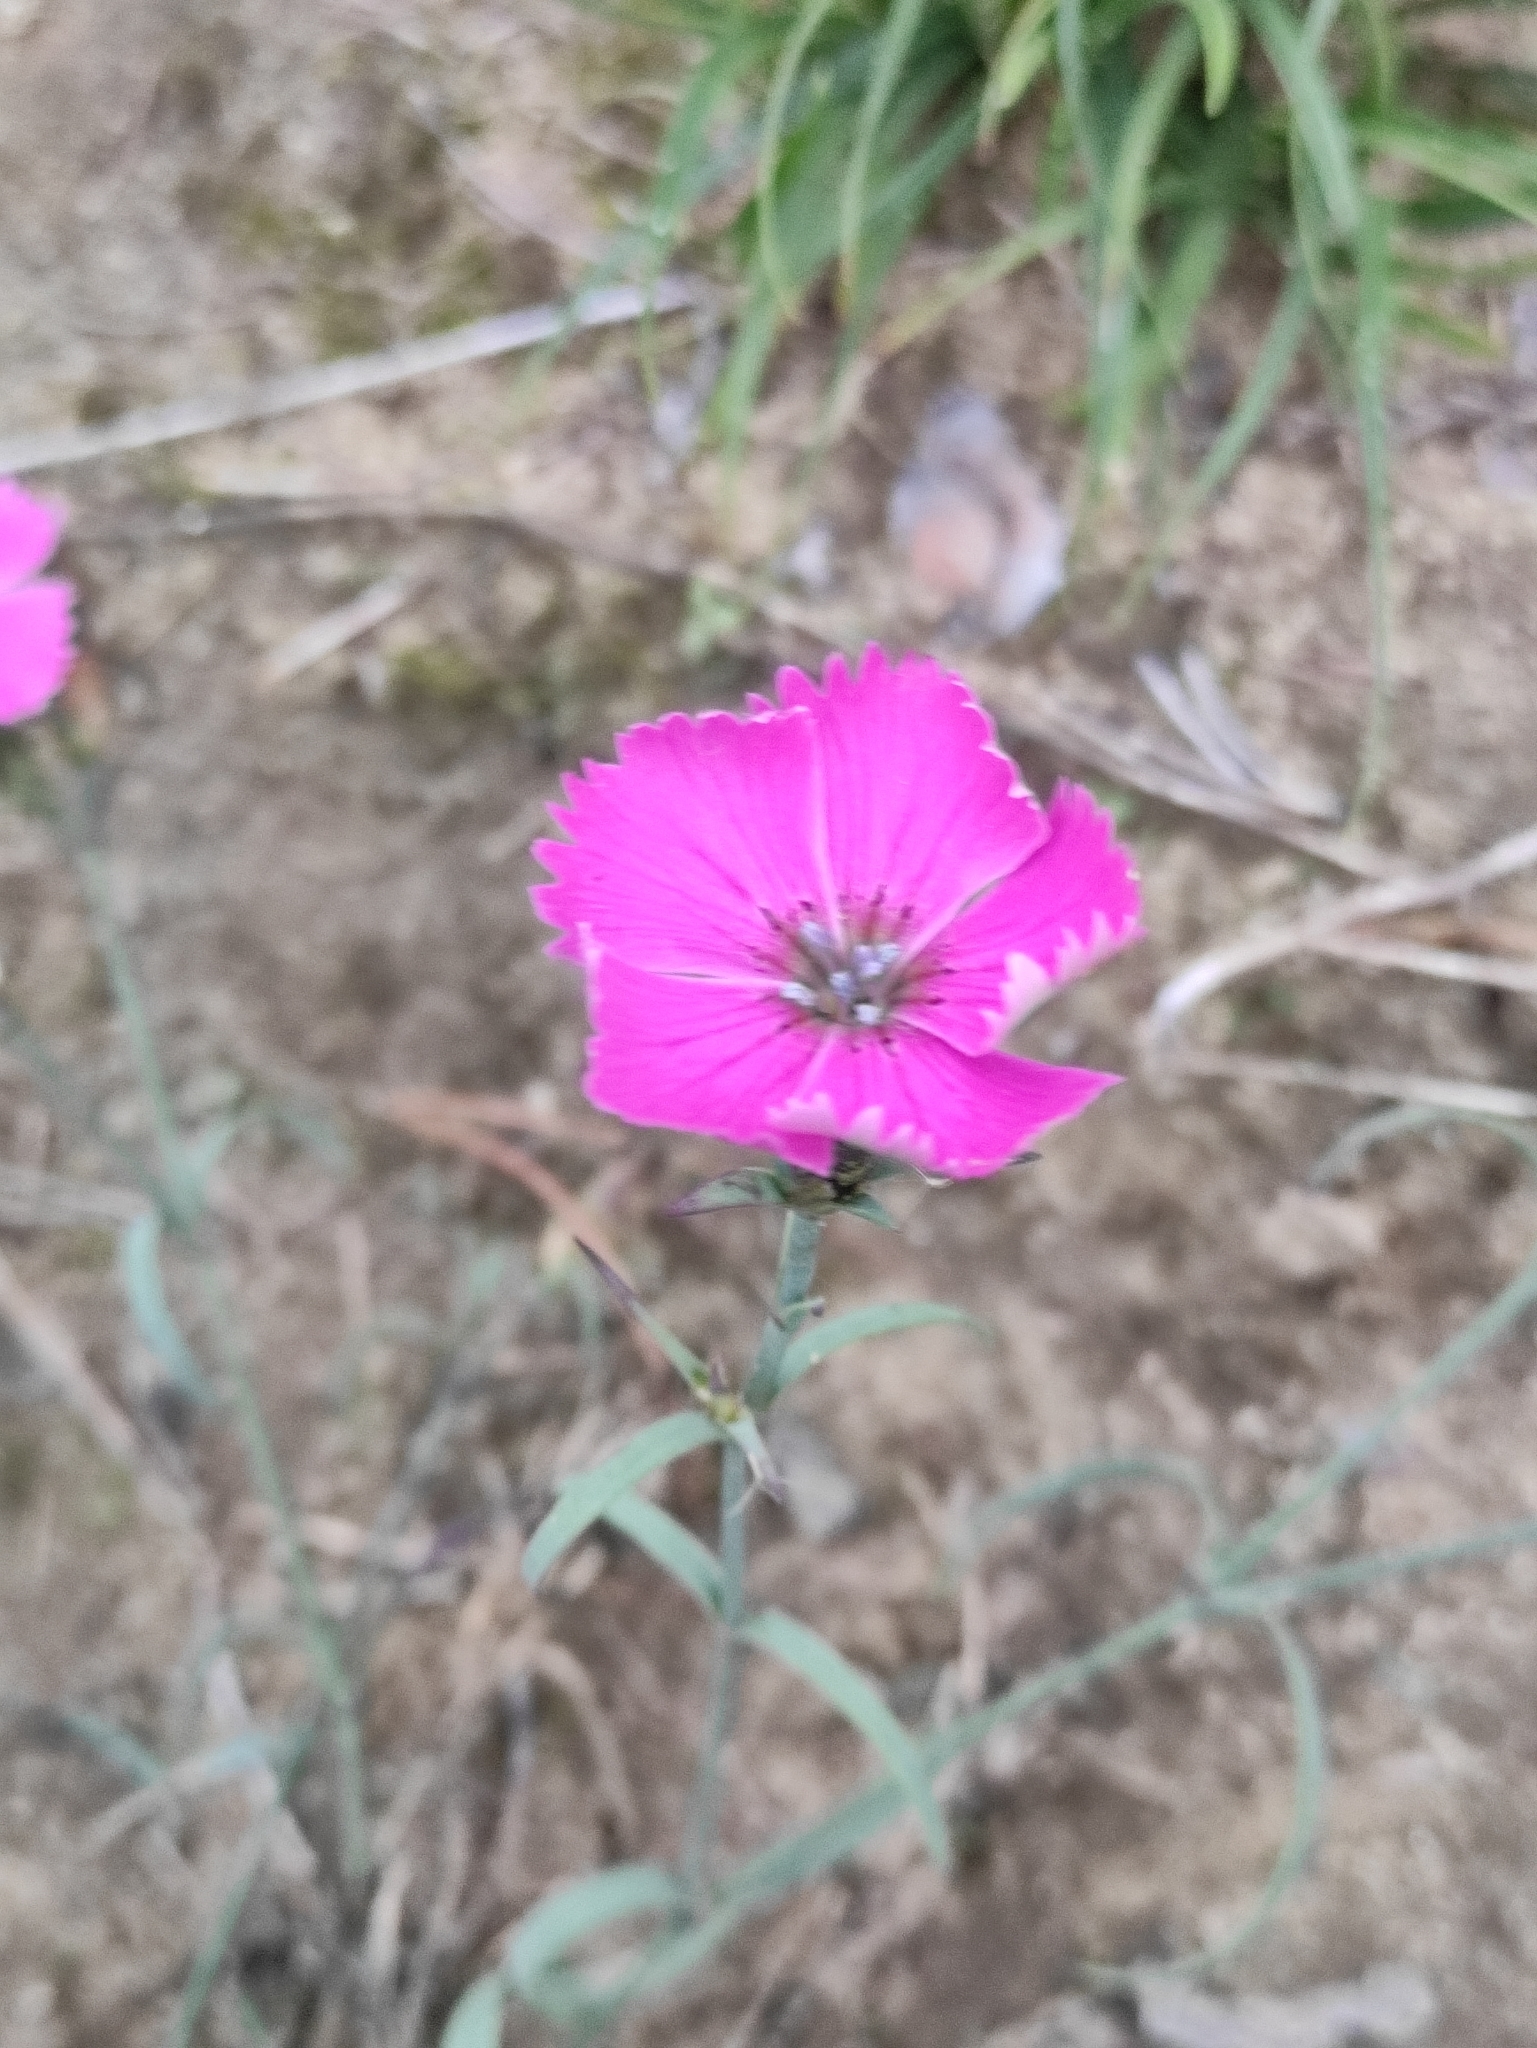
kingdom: Plantae
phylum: Tracheophyta
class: Magnoliopsida
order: Caryophyllales
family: Caryophyllaceae
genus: Dianthus
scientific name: Dianthus chinensis
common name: Rainbow pink
